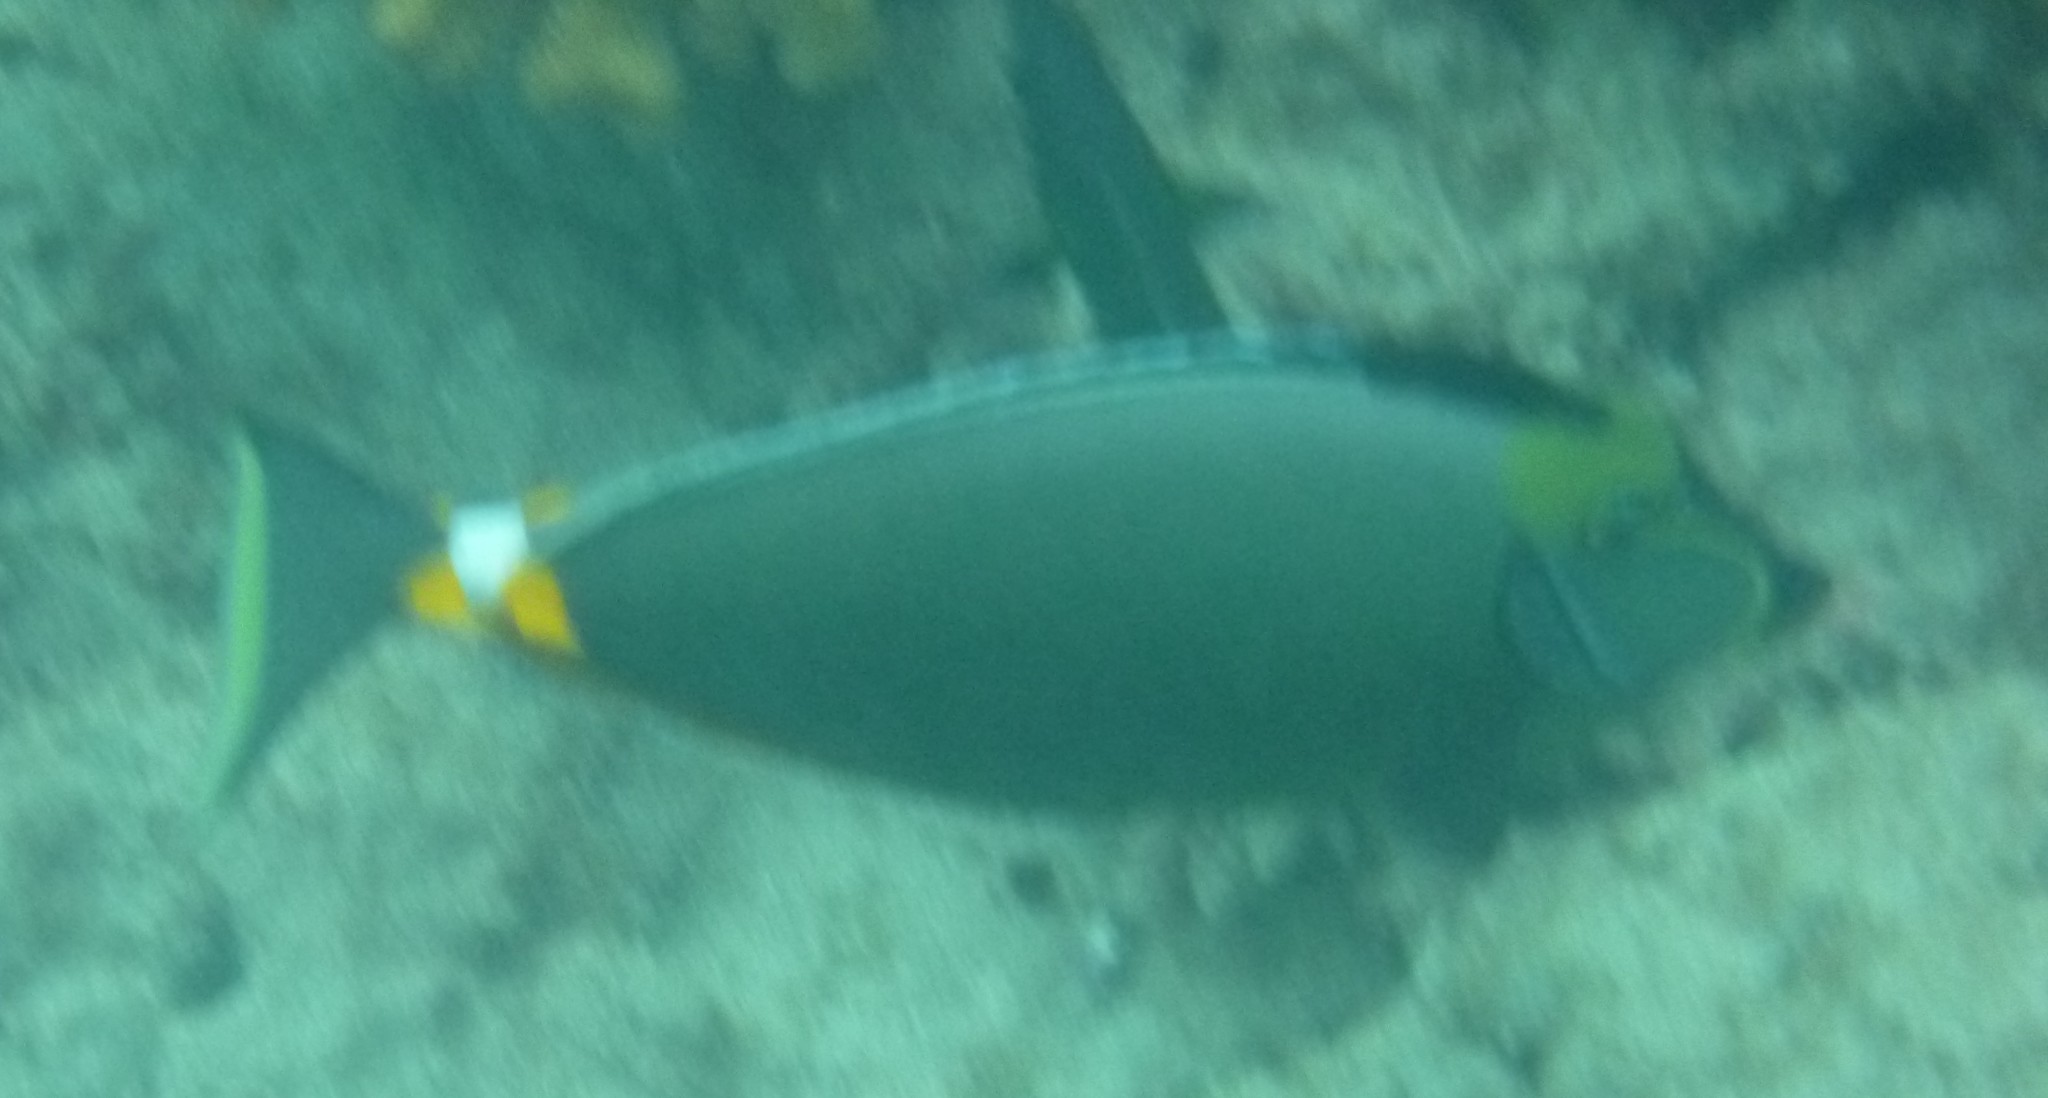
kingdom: Animalia
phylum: Chordata
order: Perciformes
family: Acanthuridae
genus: Naso
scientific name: Naso lituratus
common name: Orangespine unicornfish
